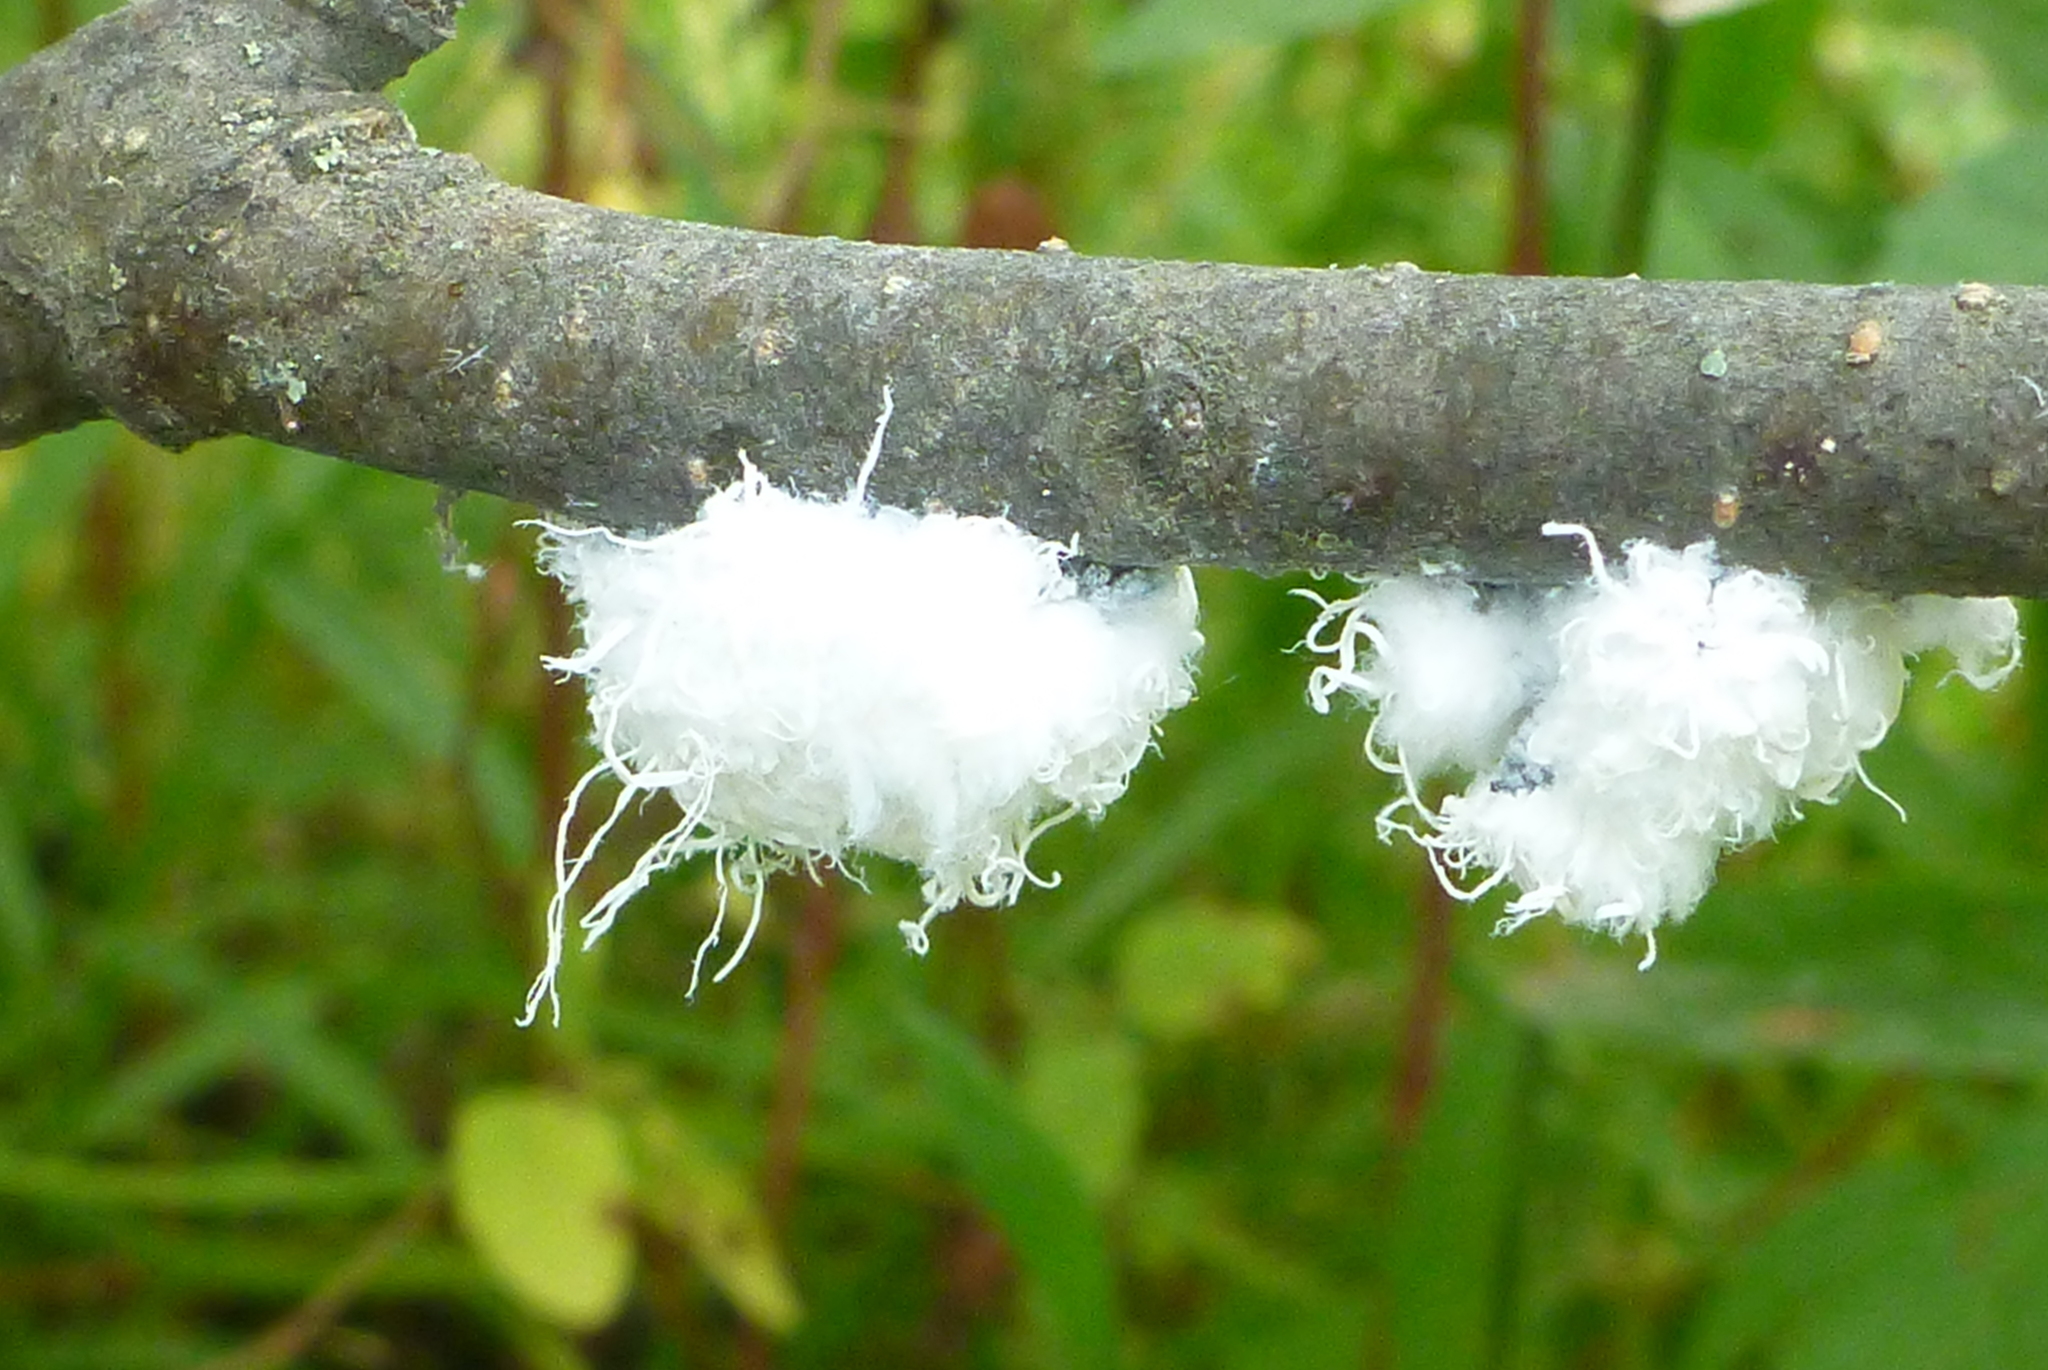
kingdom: Animalia
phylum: Arthropoda
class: Insecta
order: Hemiptera
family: Aphididae
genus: Prociphilus
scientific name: Prociphilus tessellatus
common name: Woolly alder aphid
